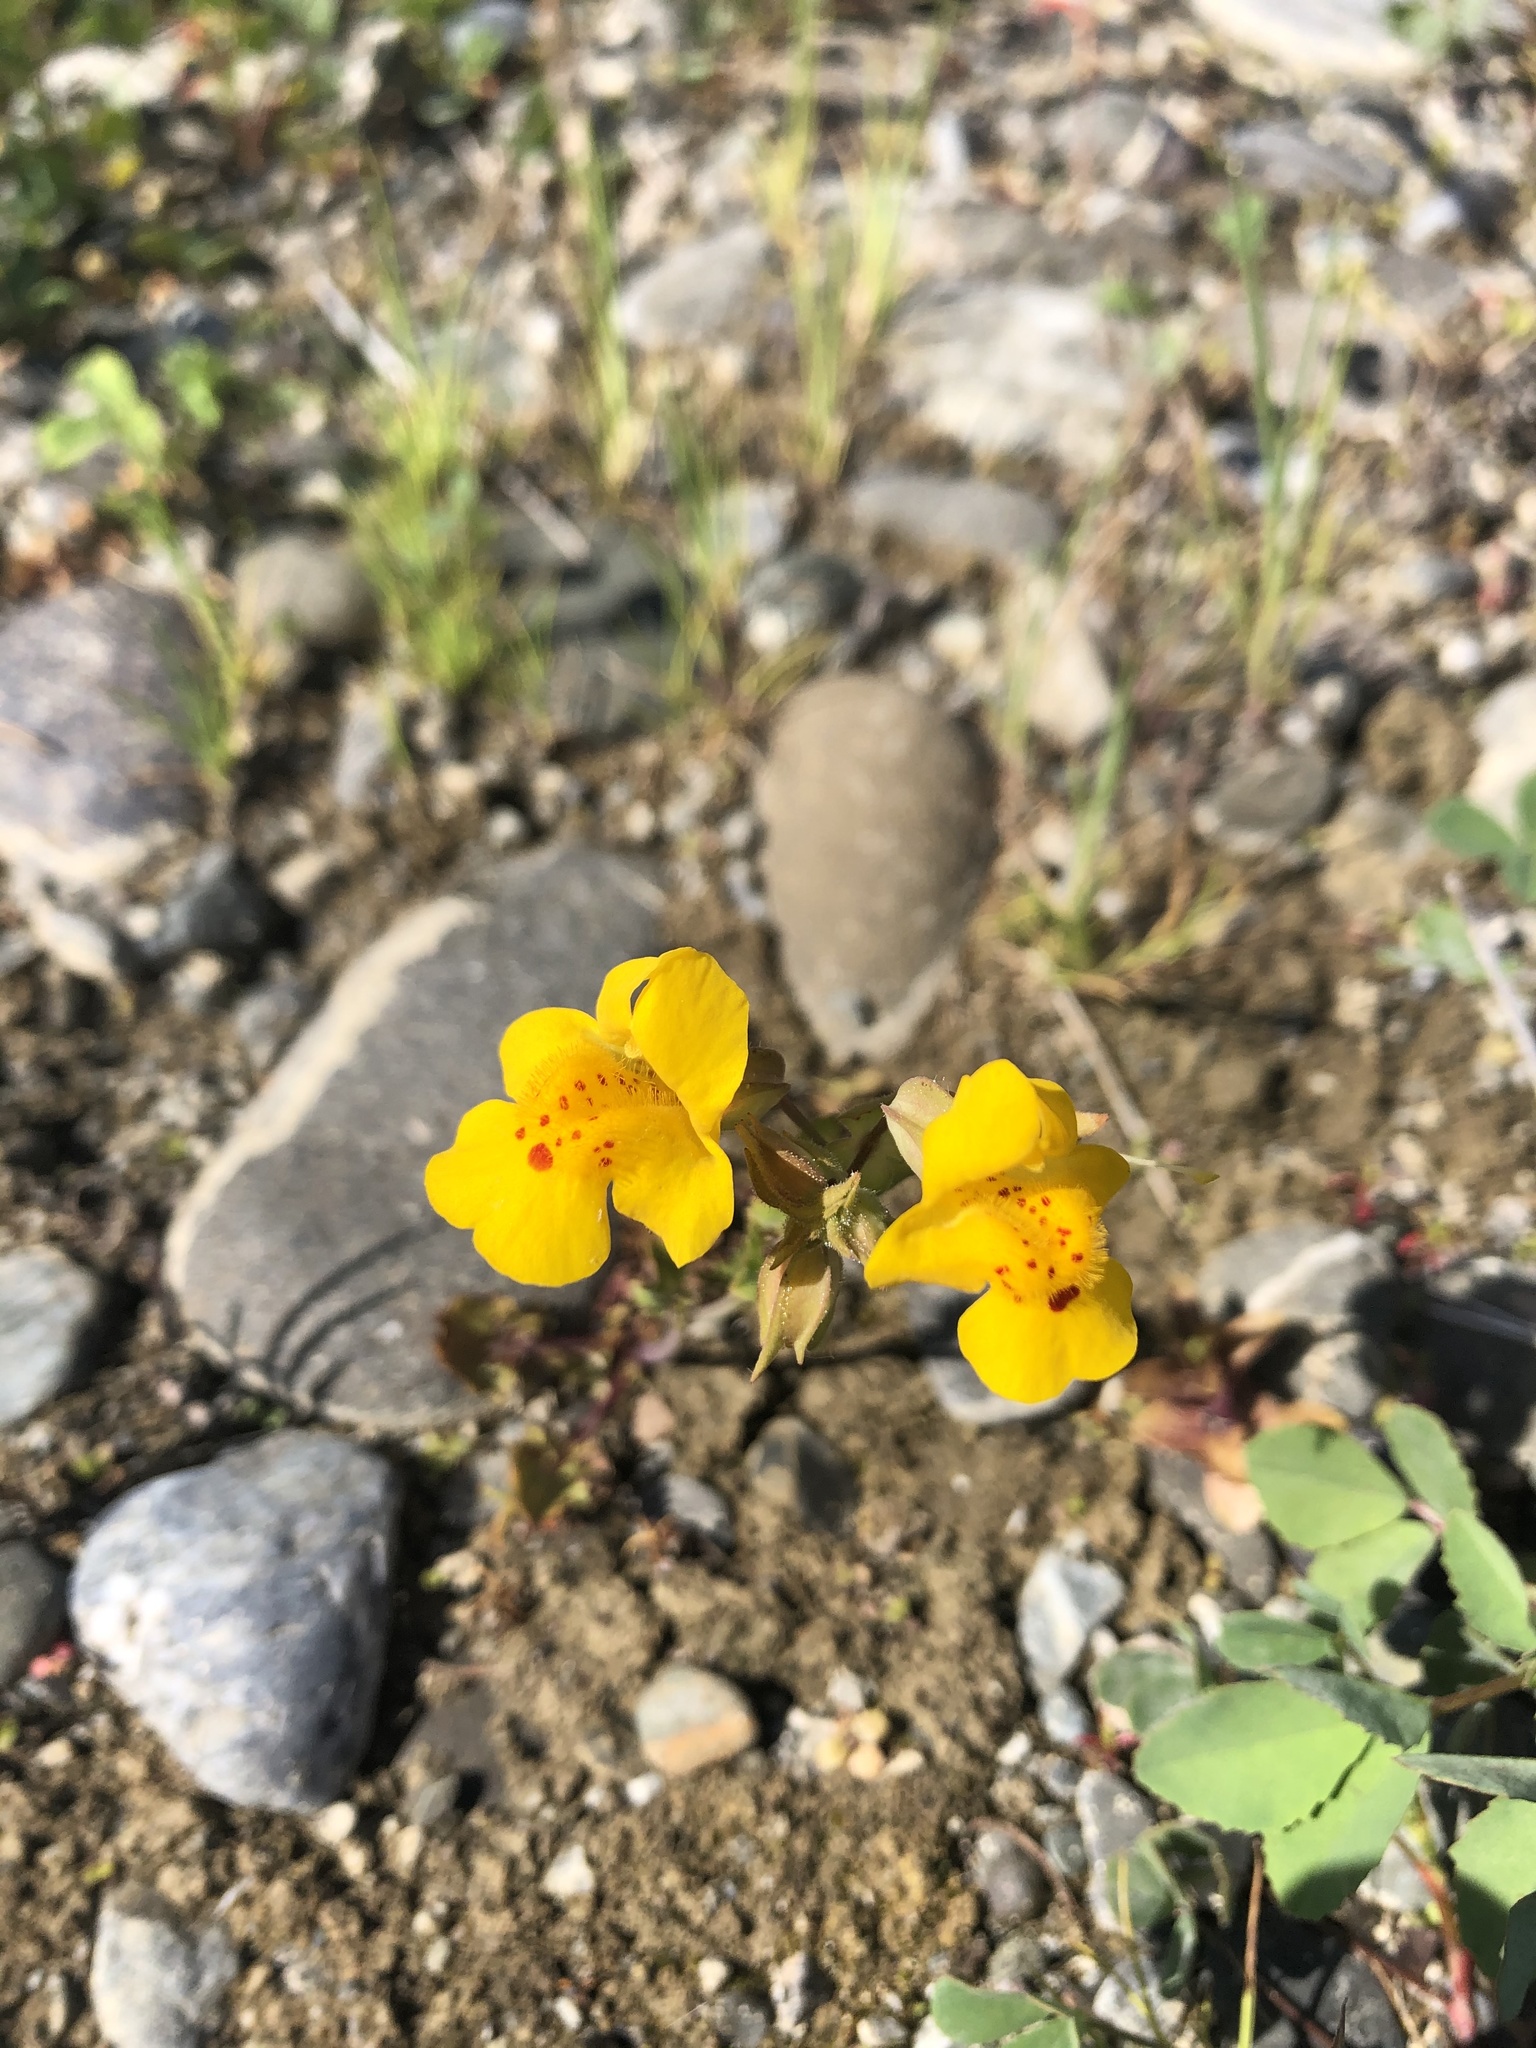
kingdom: Plantae
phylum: Tracheophyta
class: Magnoliopsida
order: Lamiales
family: Phrymaceae
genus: Erythranthe
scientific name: Erythranthe guttata
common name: Monkeyflower
